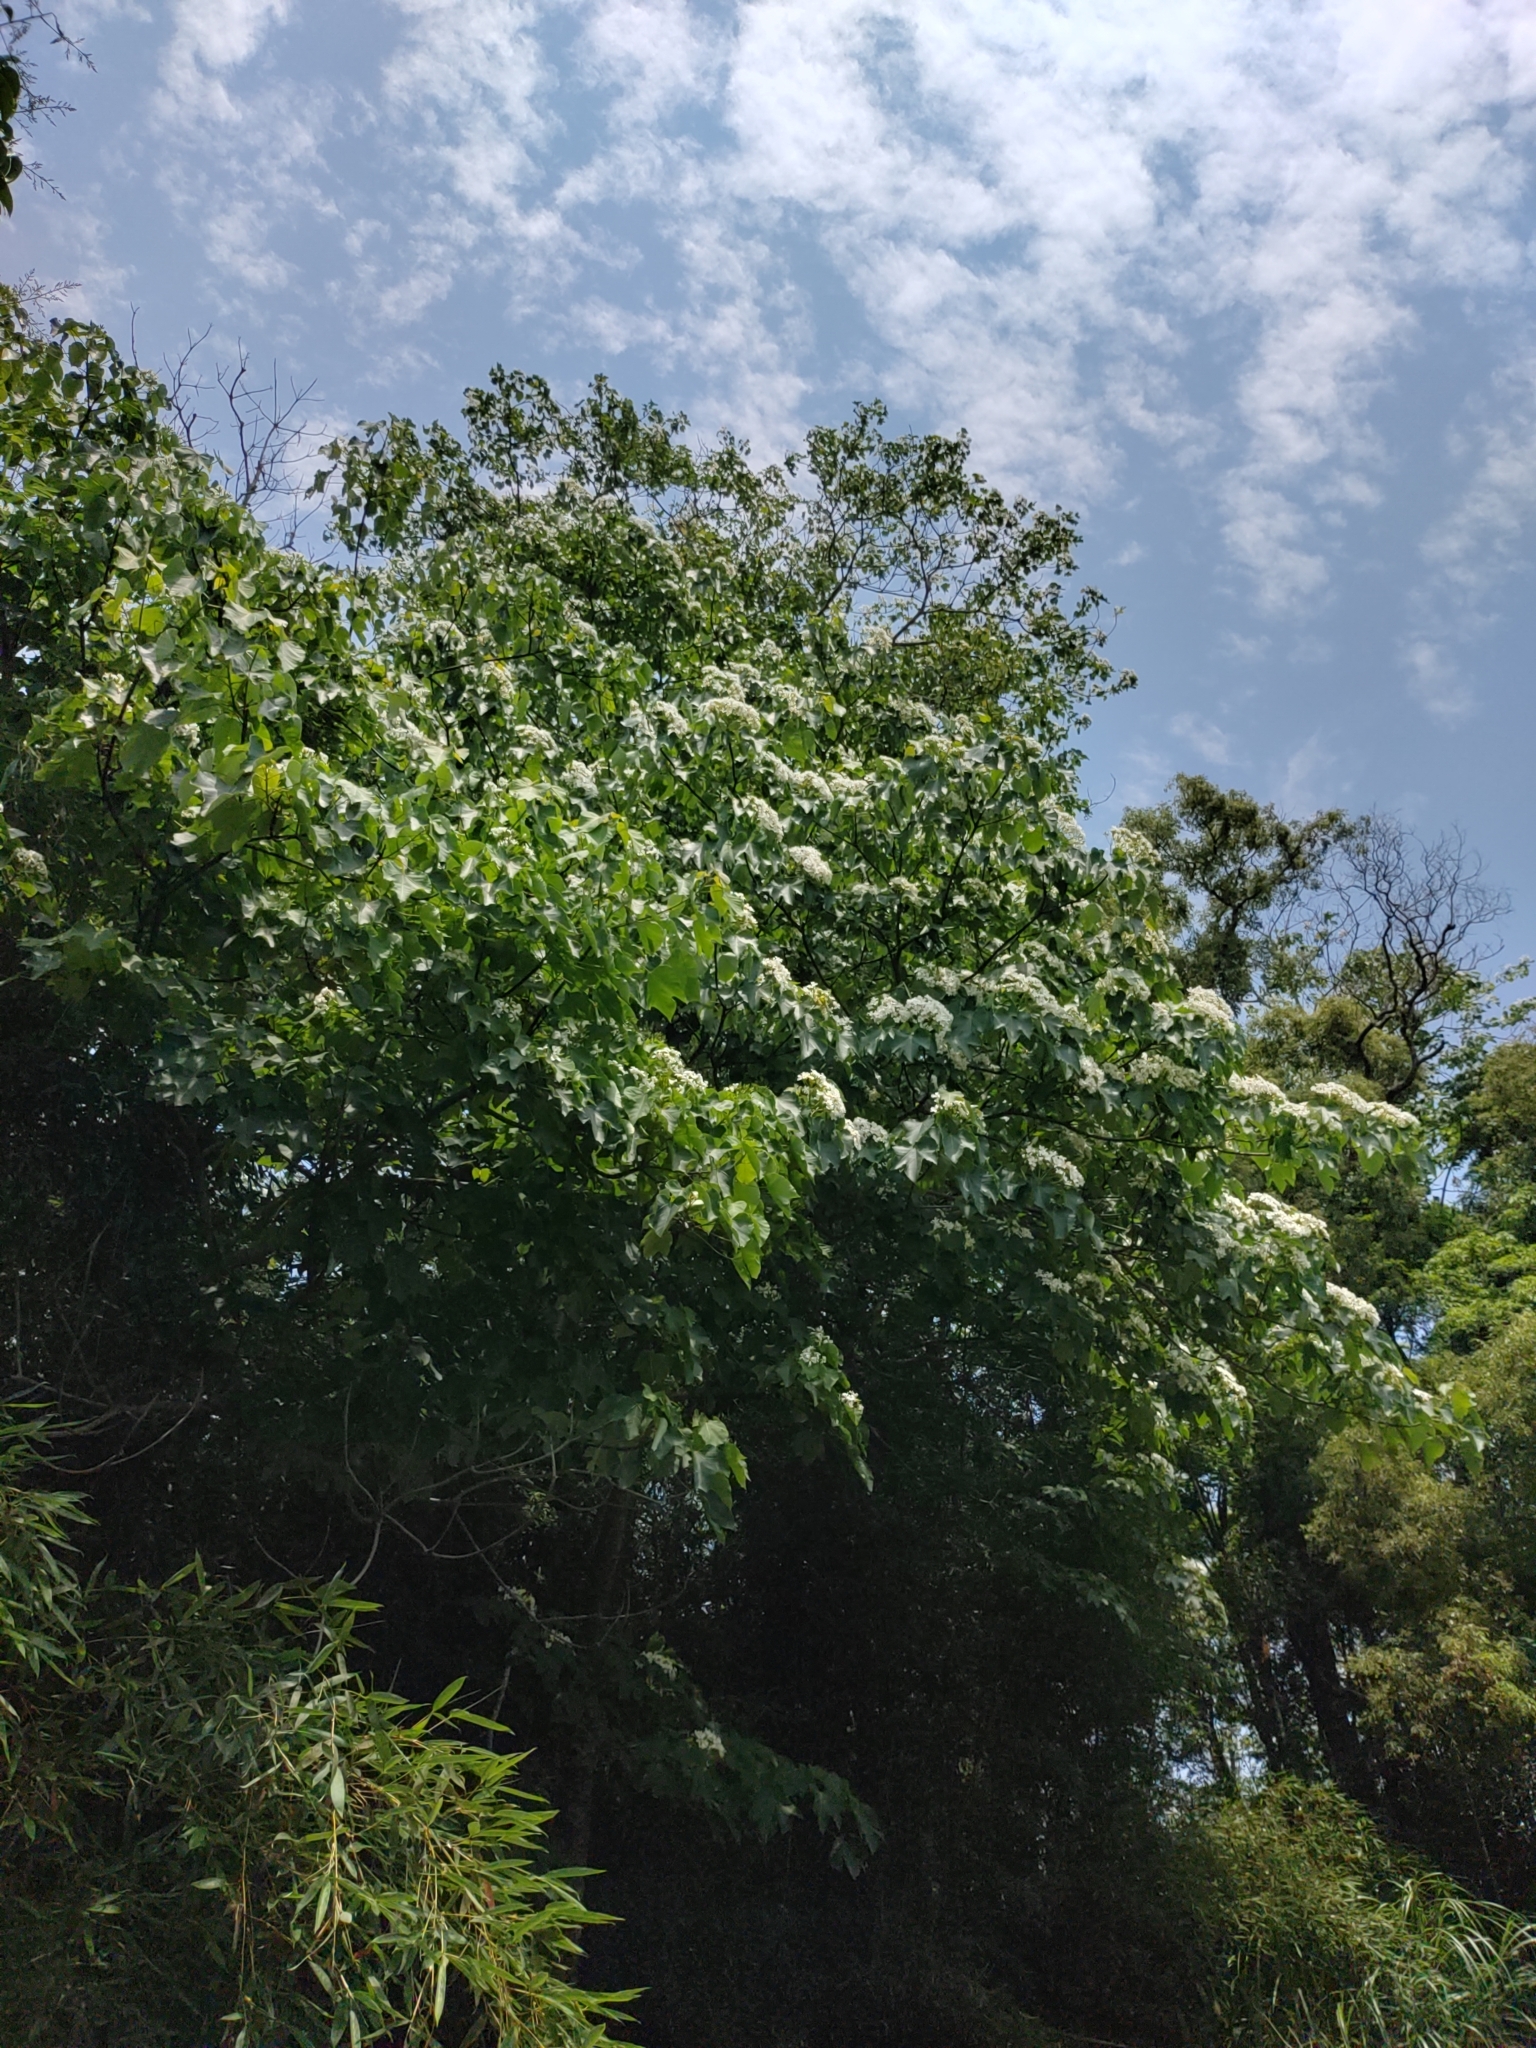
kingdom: Plantae
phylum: Tracheophyta
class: Magnoliopsida
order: Malpighiales
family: Euphorbiaceae
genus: Vernicia
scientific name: Vernicia montana
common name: Mu oil tree
